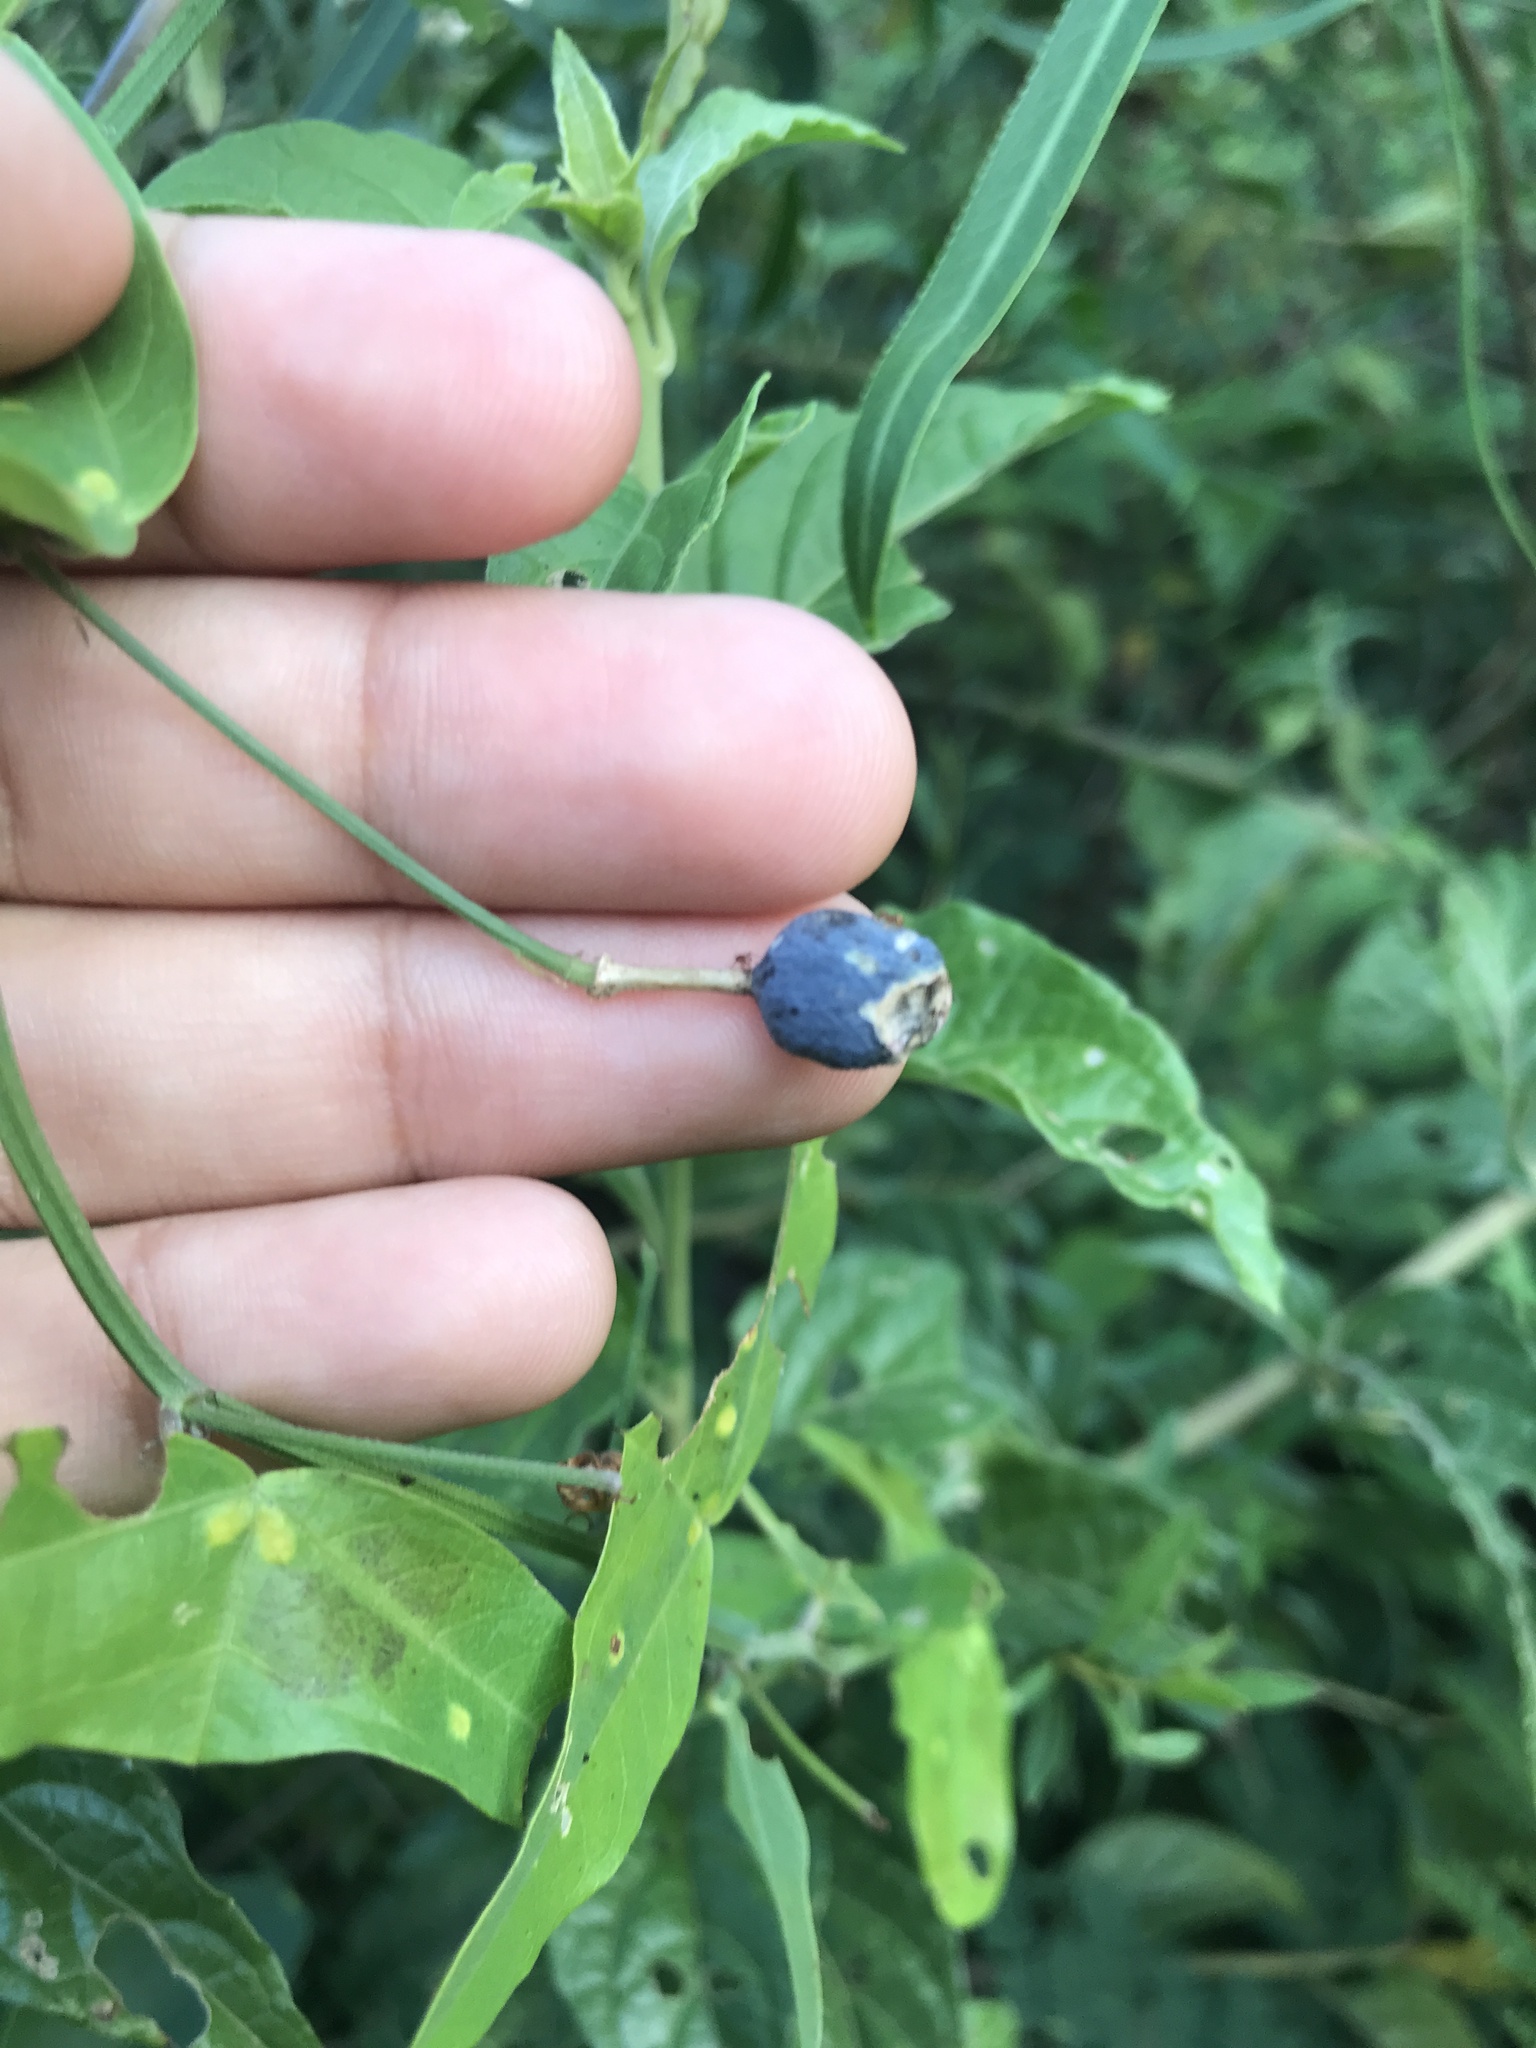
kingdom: Plantae
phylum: Tracheophyta
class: Magnoliopsida
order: Malpighiales
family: Passifloraceae
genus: Passiflora
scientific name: Passiflora misera
